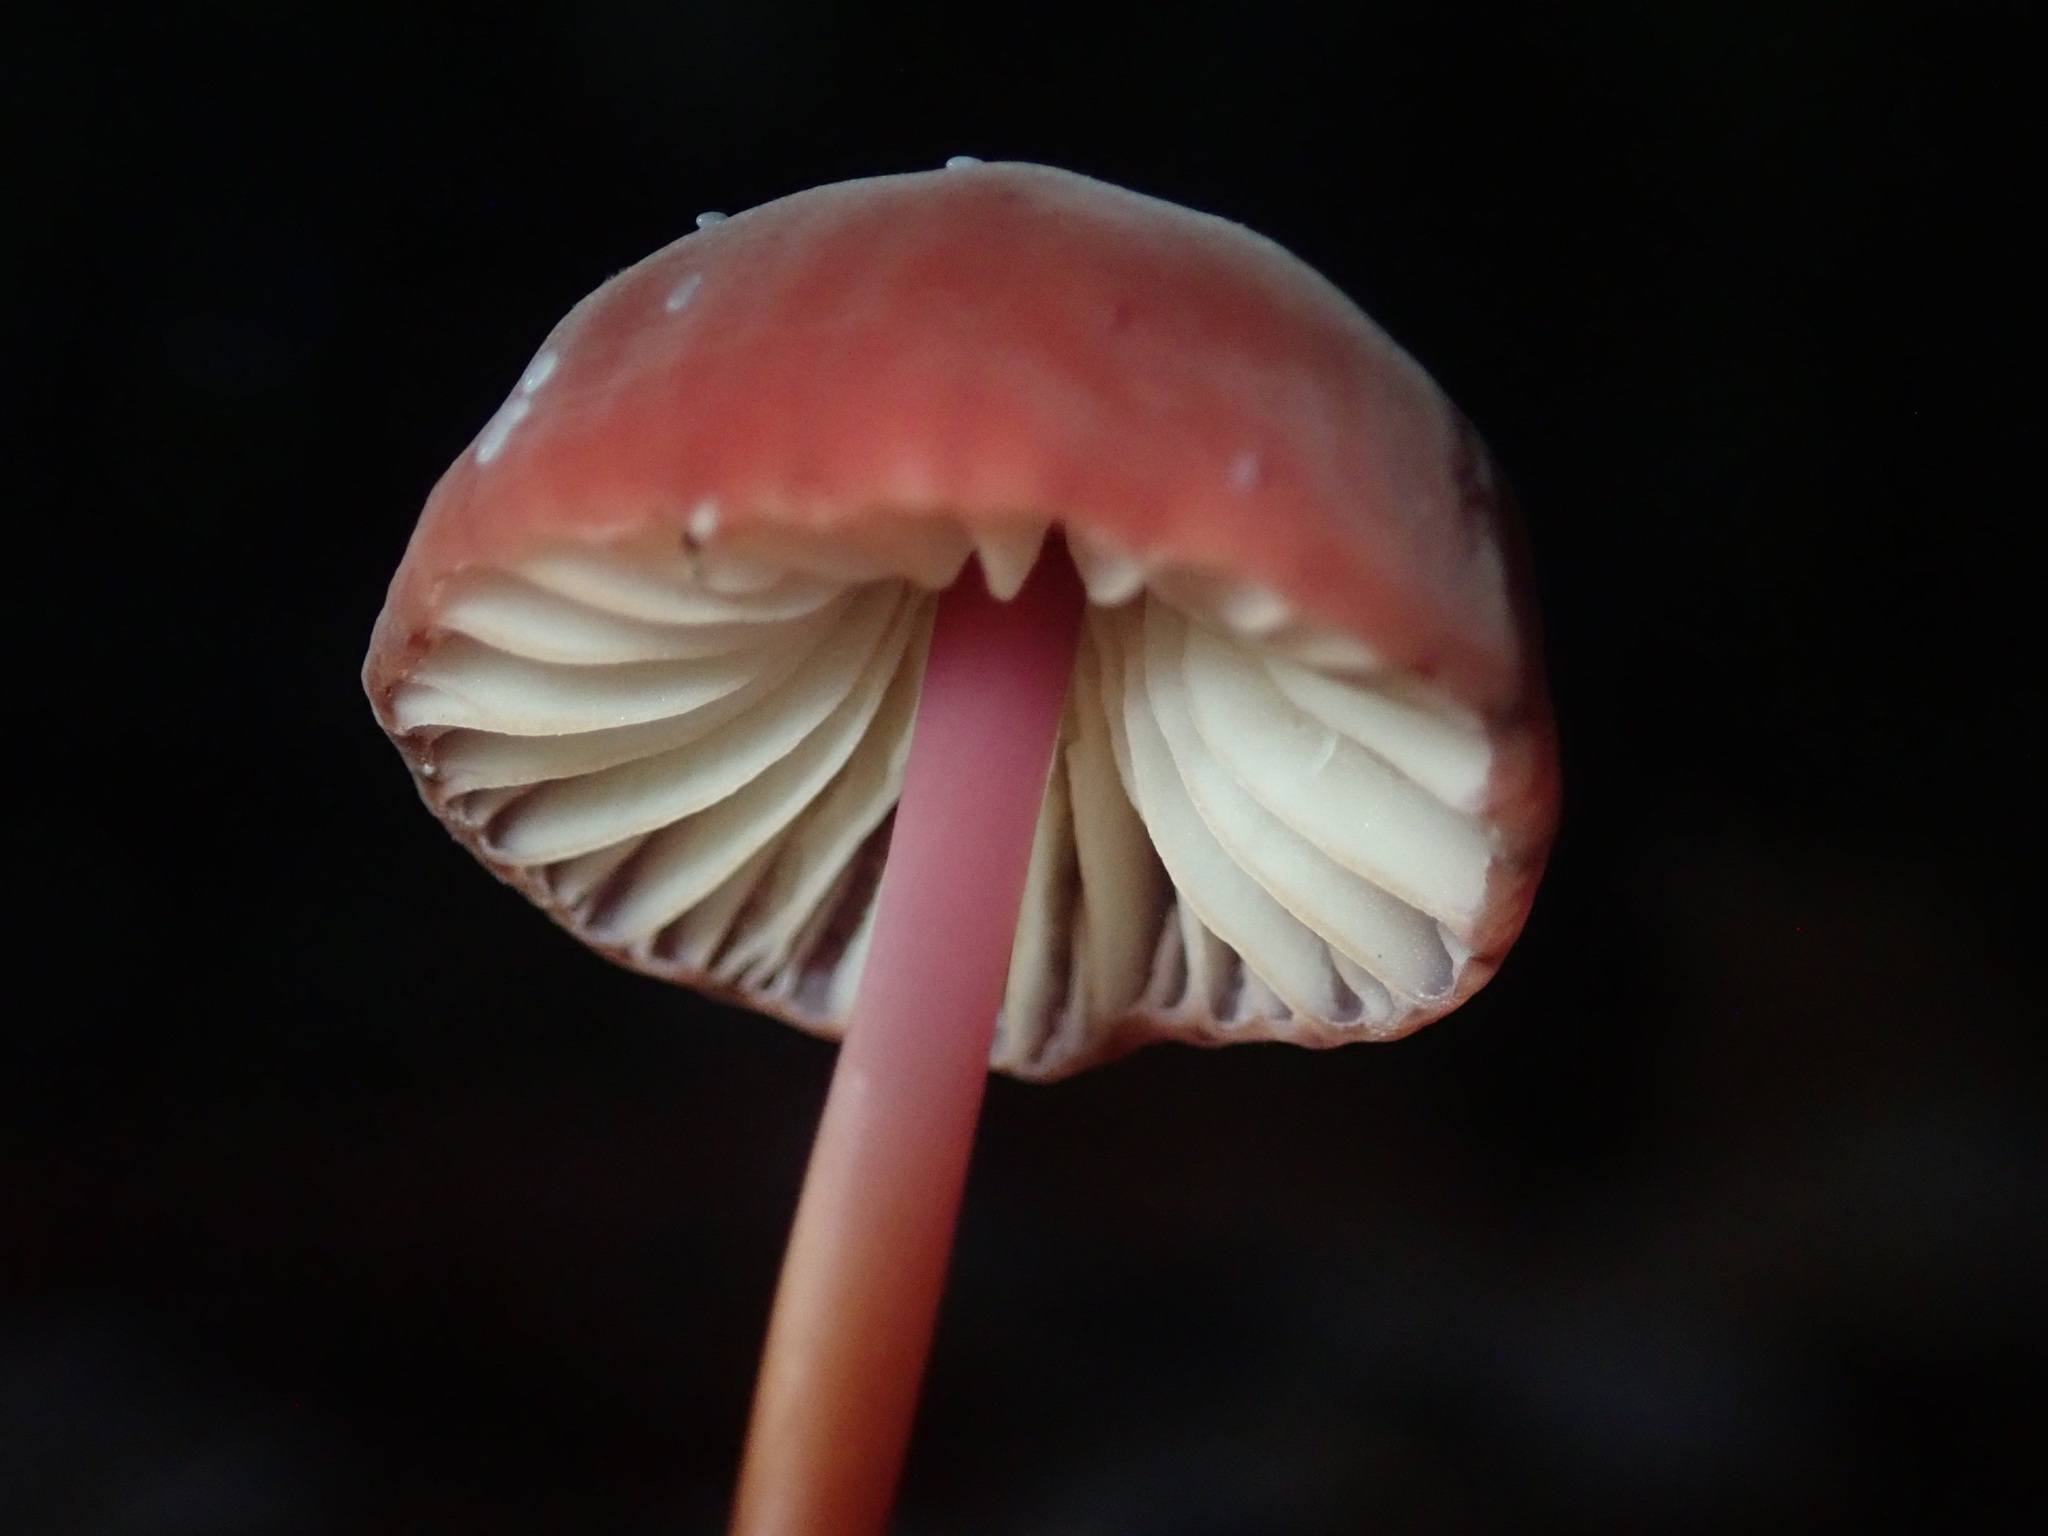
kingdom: Fungi
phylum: Basidiomycota
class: Agaricomycetes
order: Agaricales
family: Marasmiaceae
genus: Marasmius
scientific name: Marasmius plicatulus
